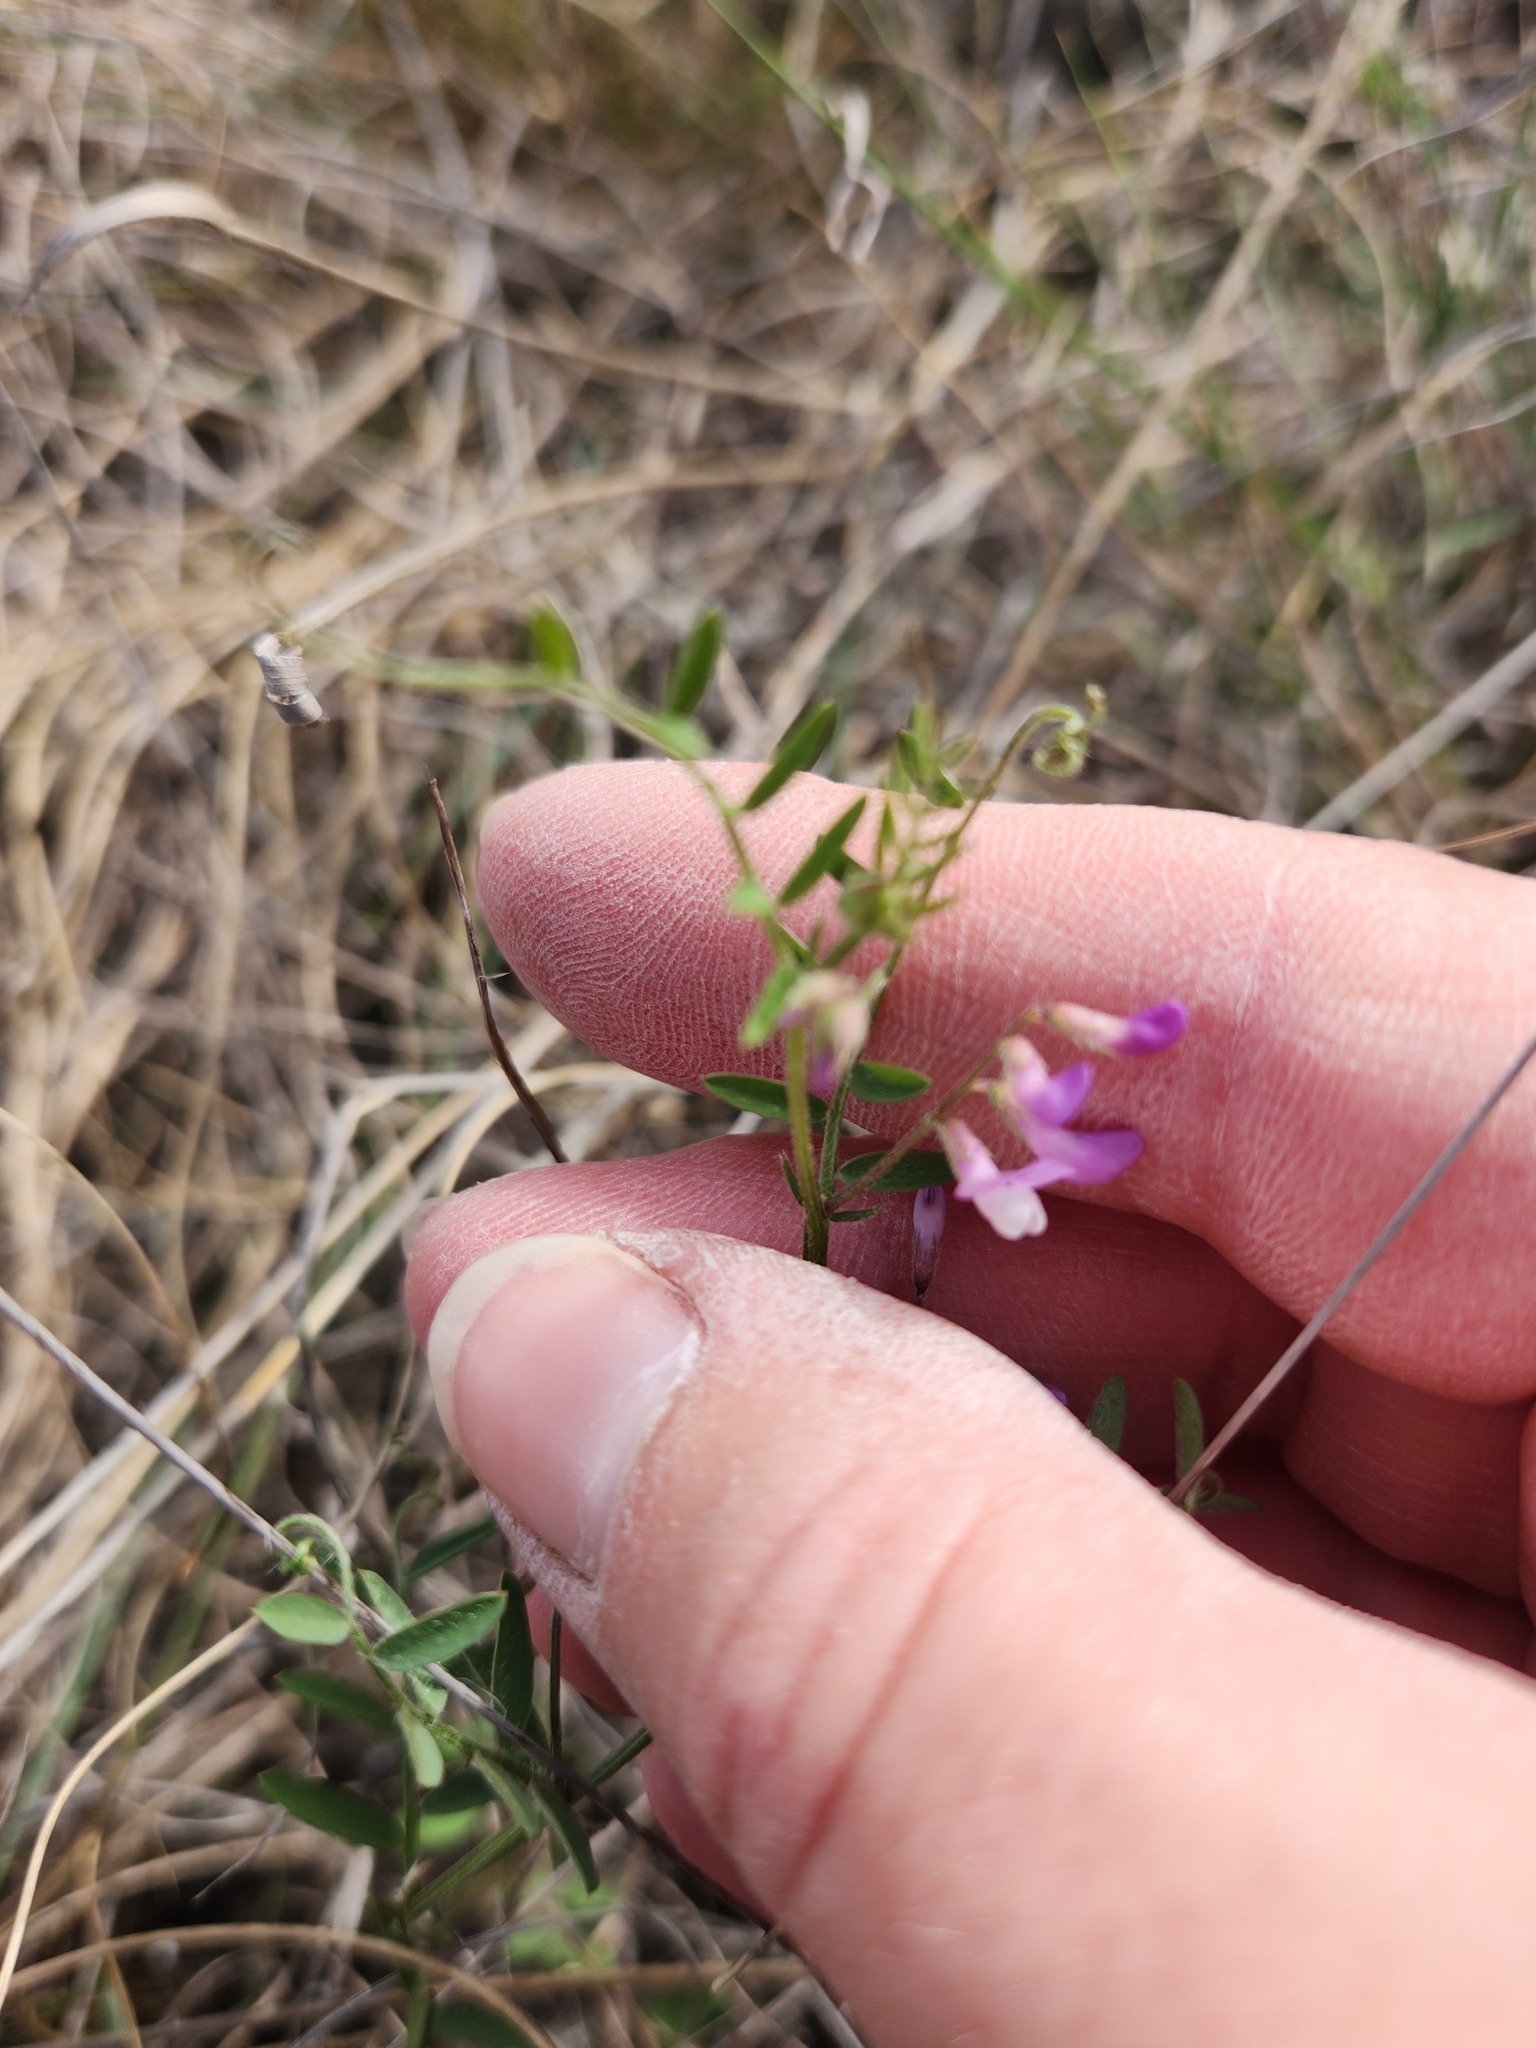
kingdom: Plantae
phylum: Tracheophyta
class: Magnoliopsida
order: Fabales
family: Fabaceae
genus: Vicia
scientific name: Vicia ludoviciana
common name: Louisiana vetch
